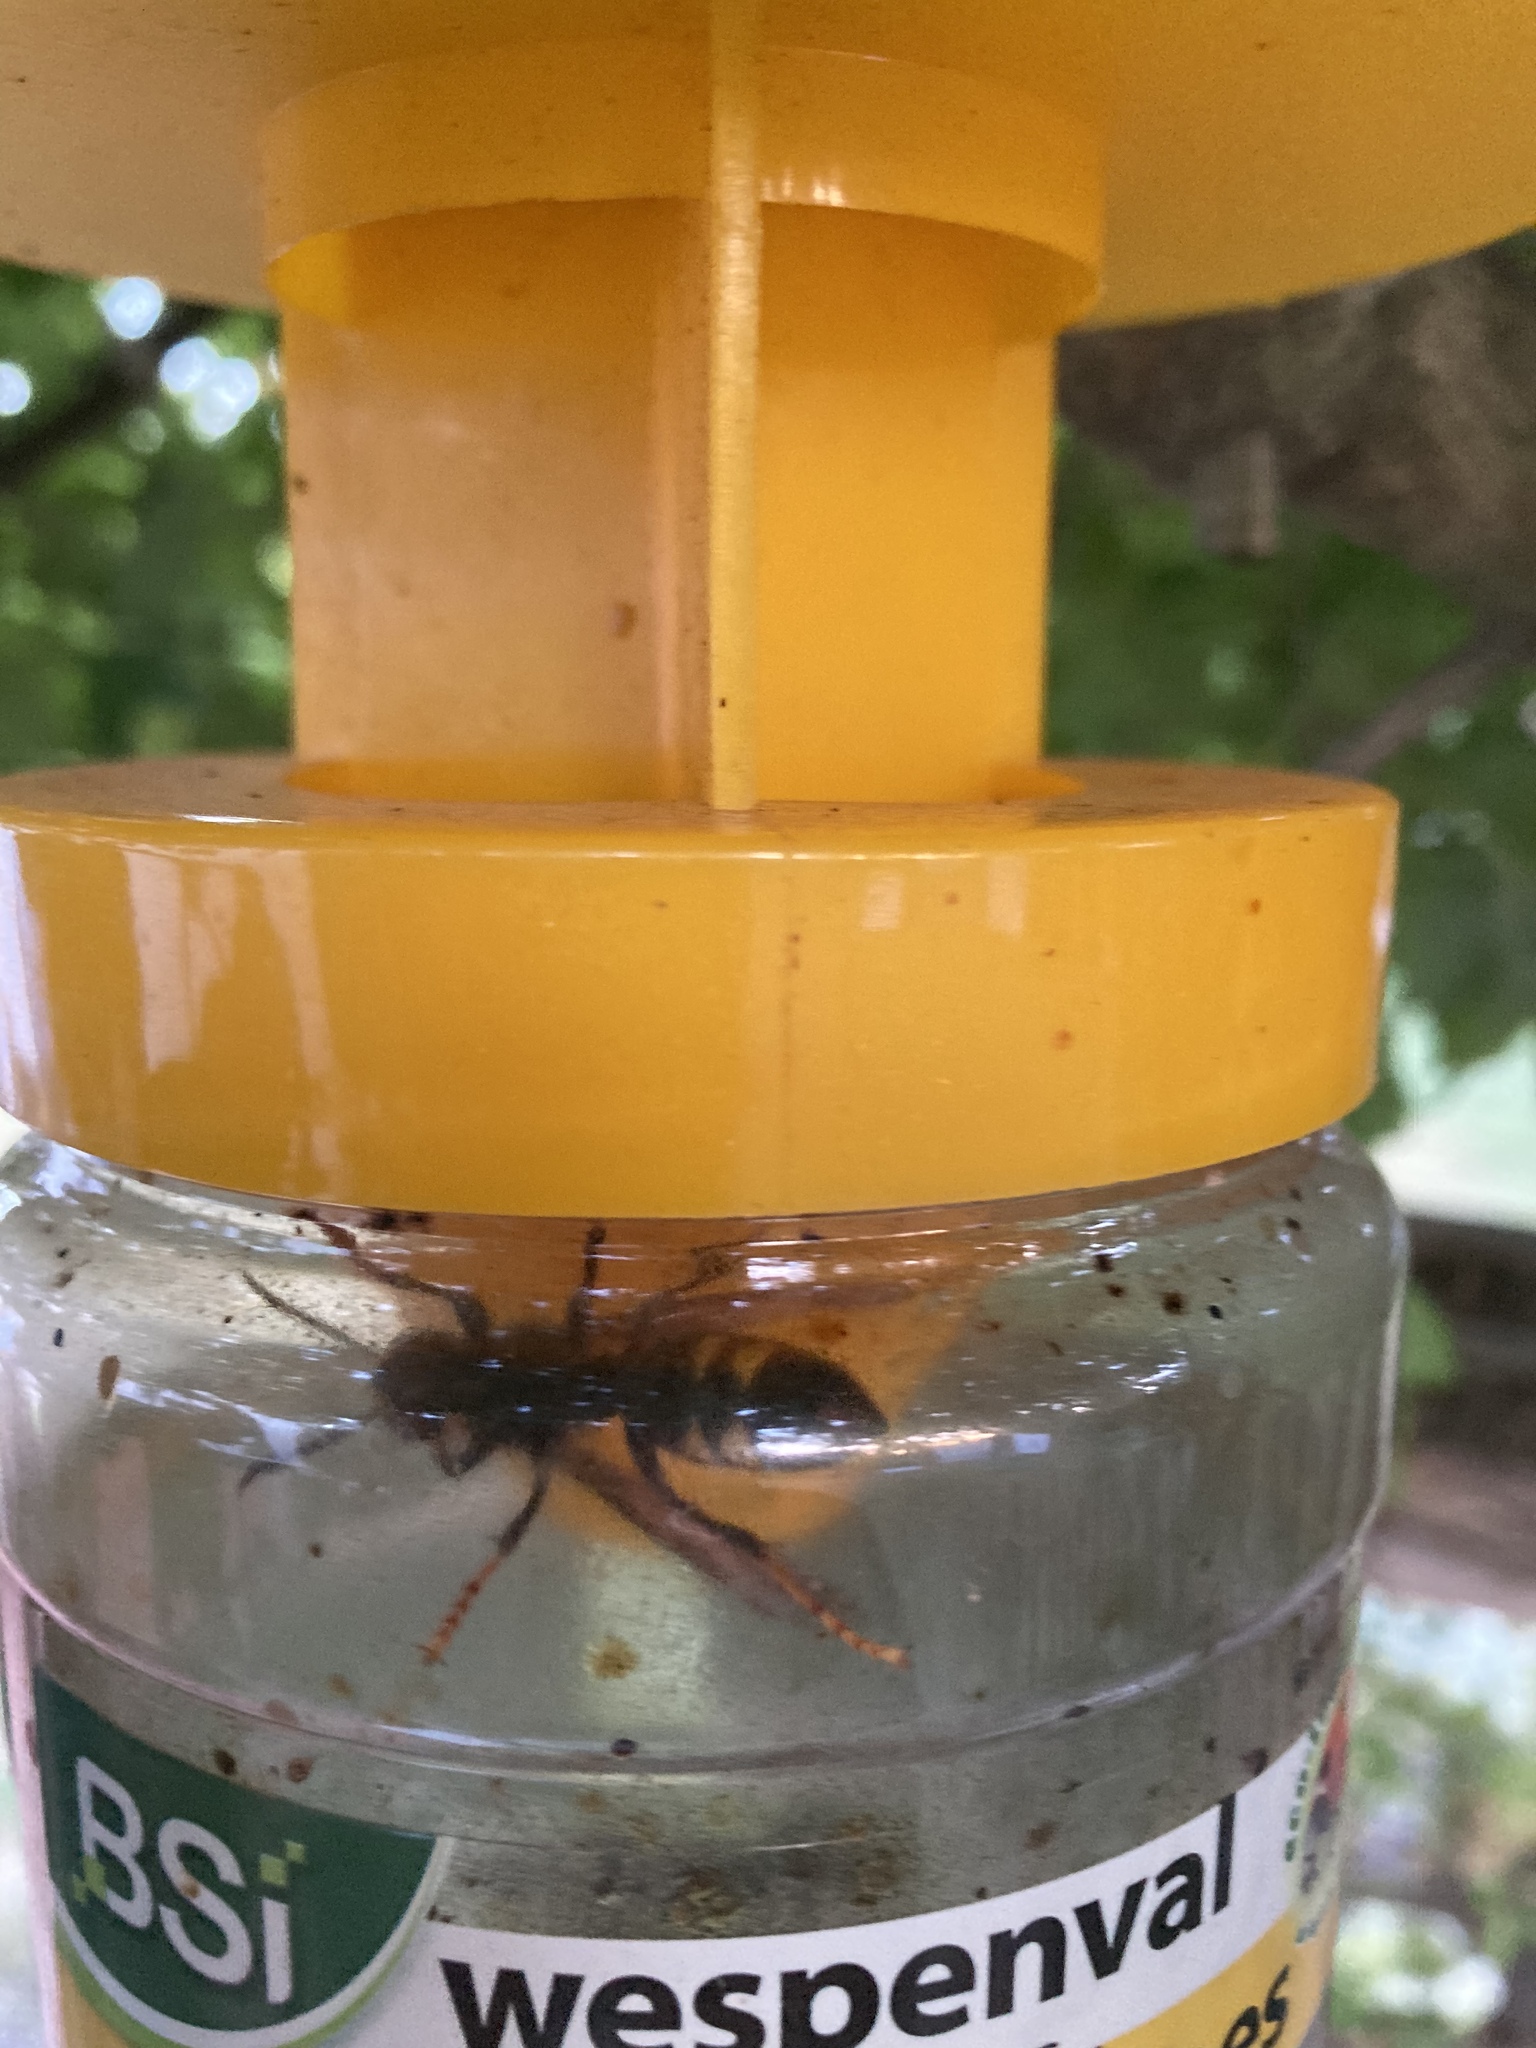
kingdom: Animalia
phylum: Arthropoda
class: Insecta
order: Hymenoptera
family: Vespidae
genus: Vespa
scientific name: Vespa velutina
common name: Asian hornet
